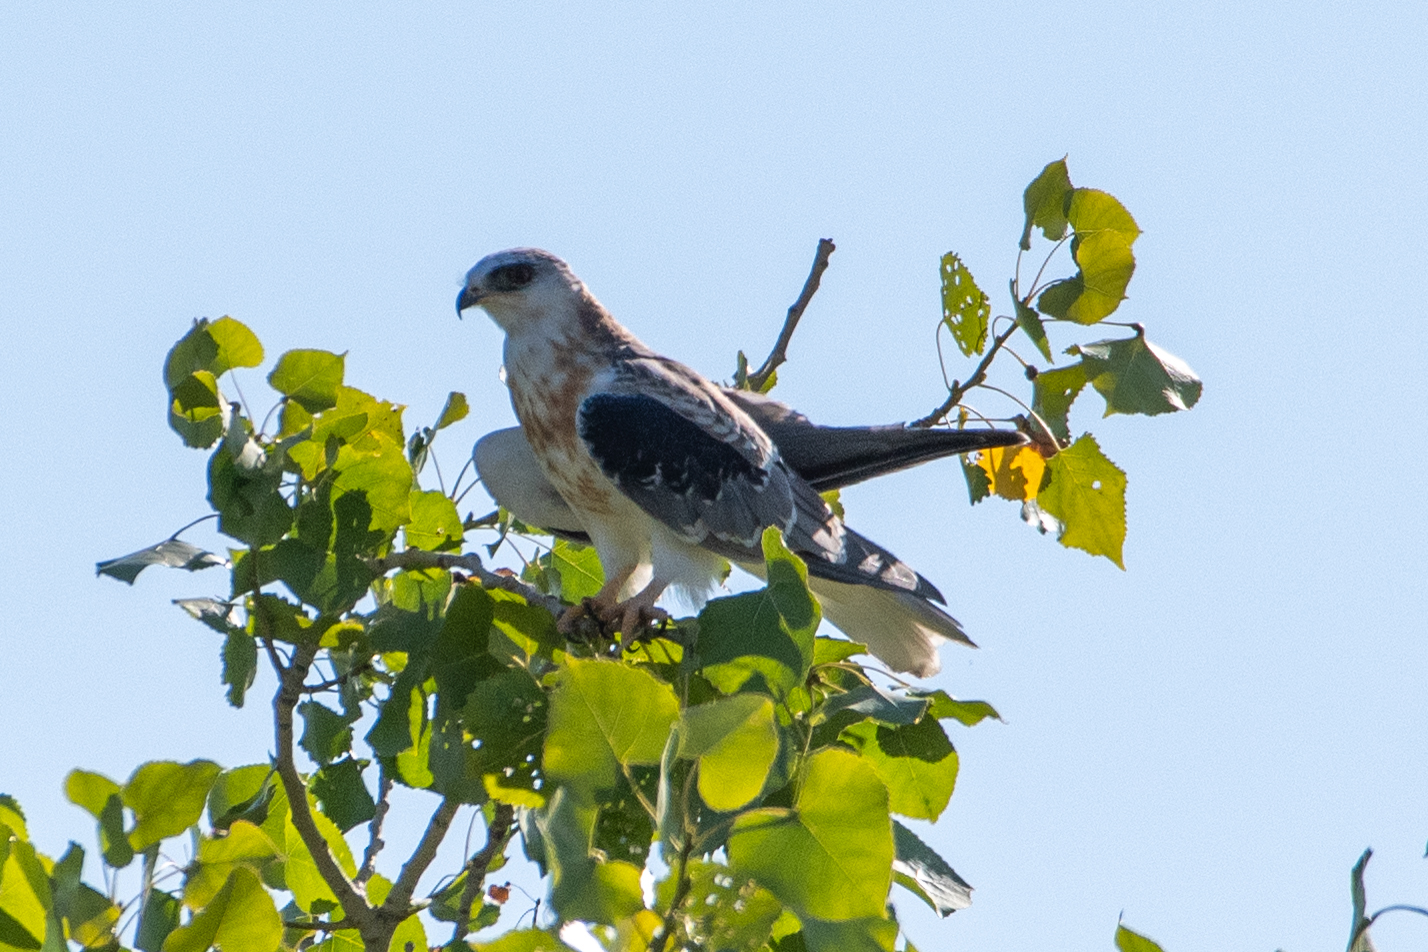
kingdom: Animalia
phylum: Chordata
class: Aves
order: Accipitriformes
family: Accipitridae
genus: Elanus
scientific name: Elanus leucurus
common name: White-tailed kite
